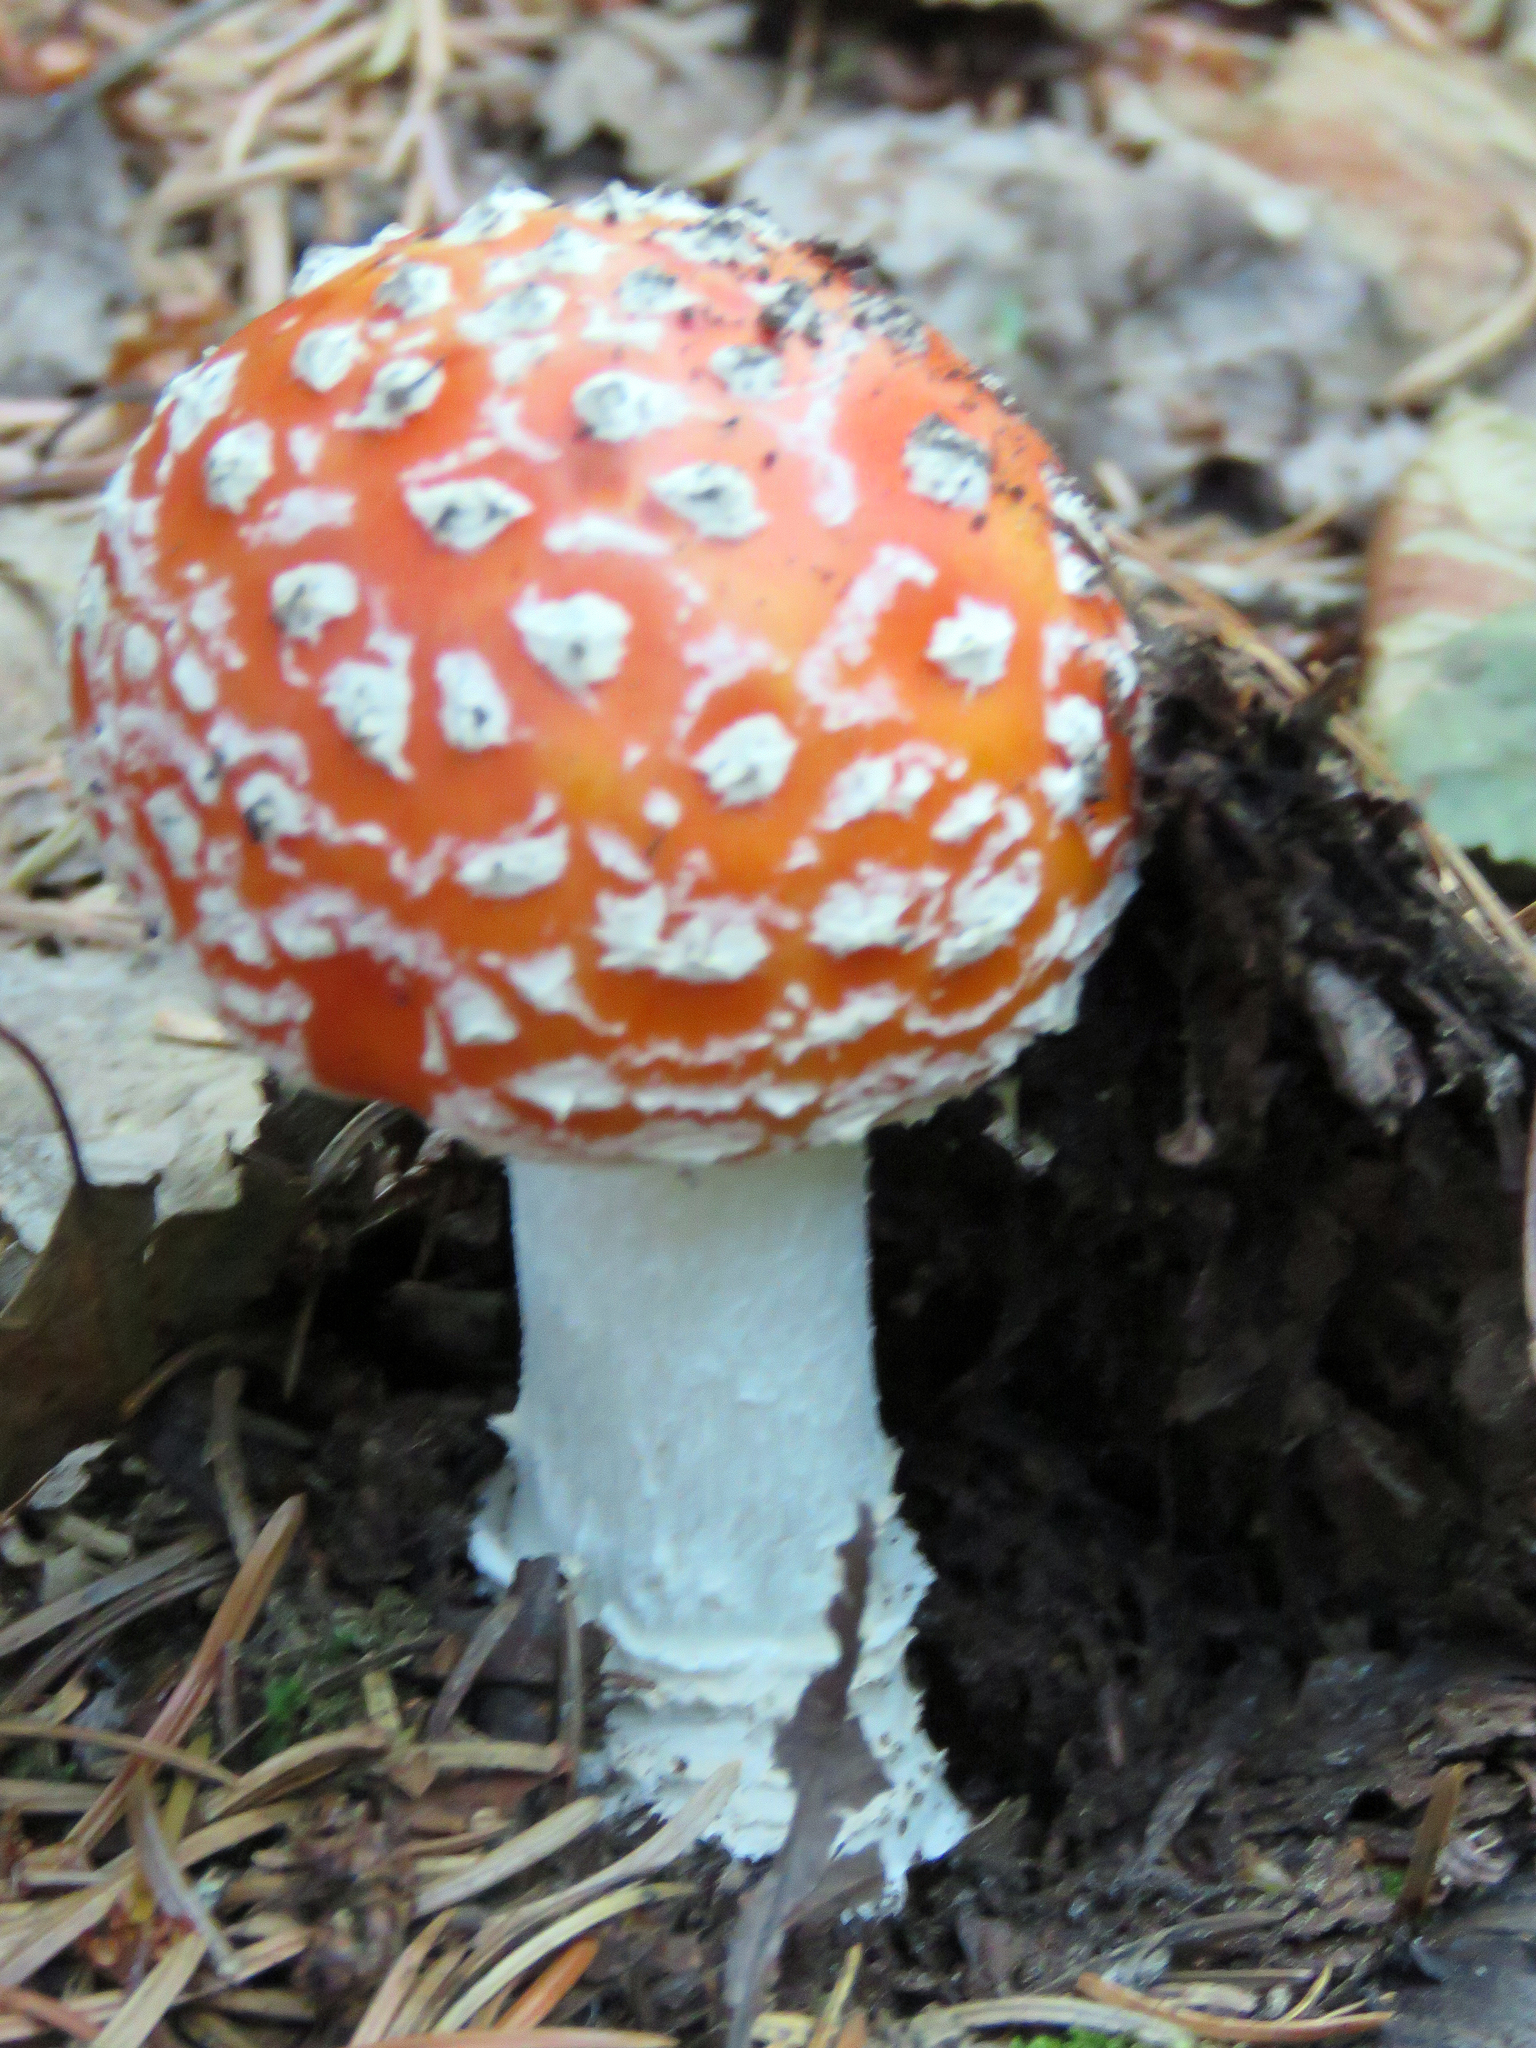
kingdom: Fungi
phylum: Basidiomycota
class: Agaricomycetes
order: Agaricales
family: Amanitaceae
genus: Amanita
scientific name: Amanita muscaria
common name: Fly agaric
